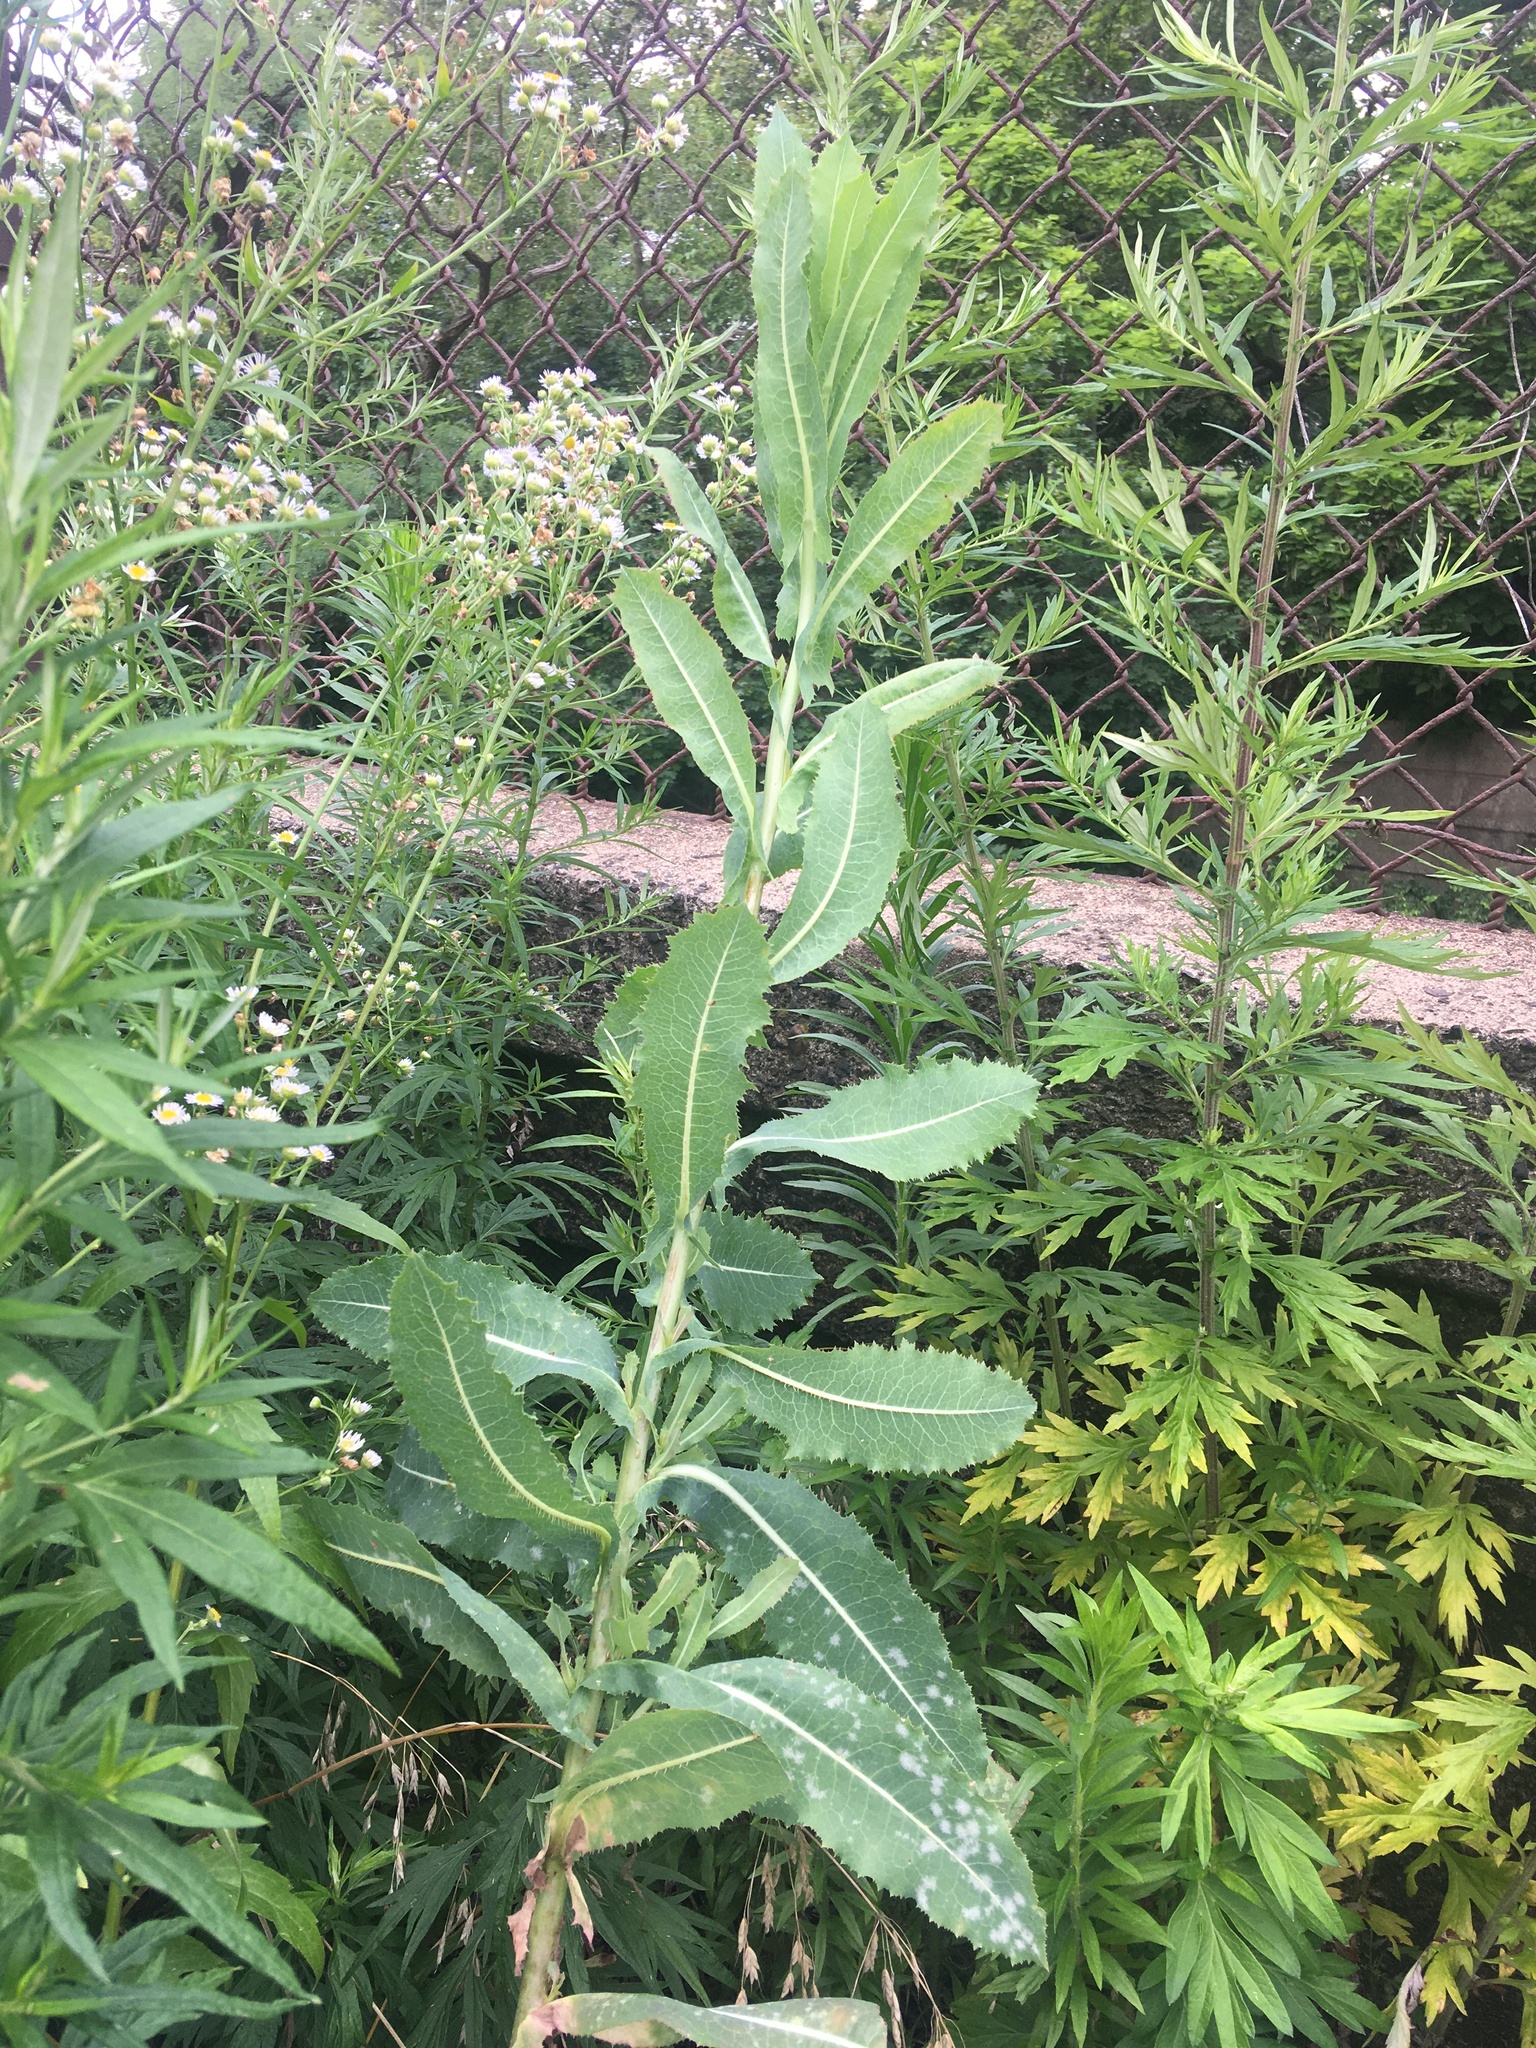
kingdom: Plantae
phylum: Tracheophyta
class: Magnoliopsida
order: Asterales
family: Asteraceae
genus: Lactuca
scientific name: Lactuca serriola
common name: Prickly lettuce
